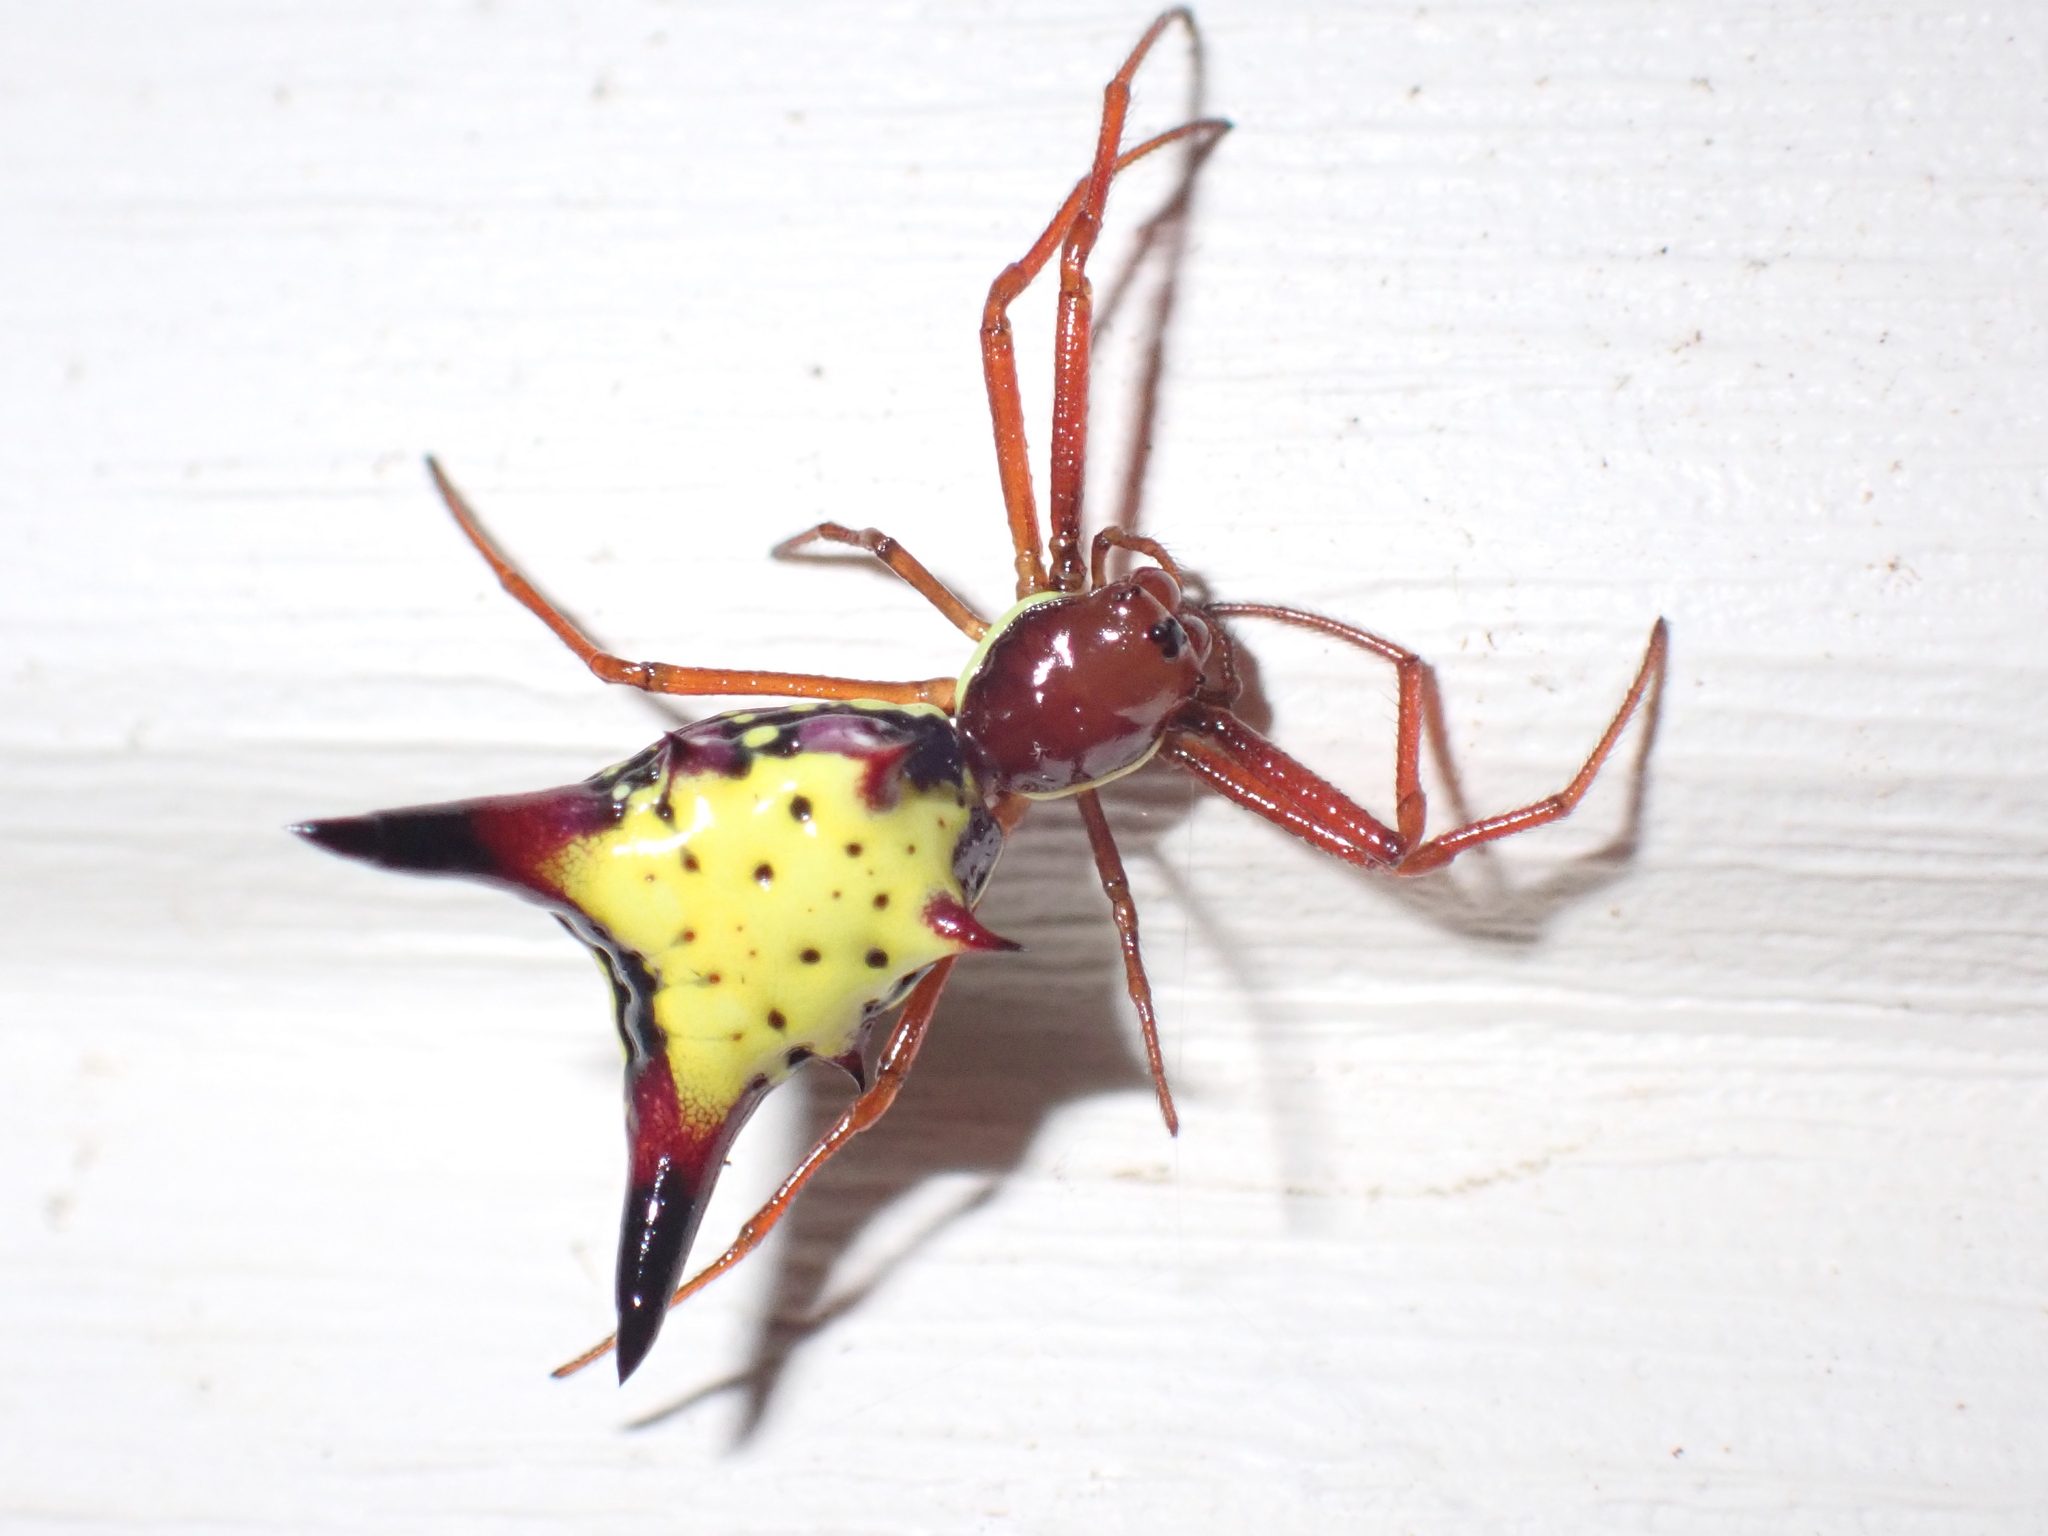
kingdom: Animalia
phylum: Arthropoda
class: Arachnida
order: Araneae
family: Araneidae
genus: Micrathena
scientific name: Micrathena sagittata
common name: Orb weavers
